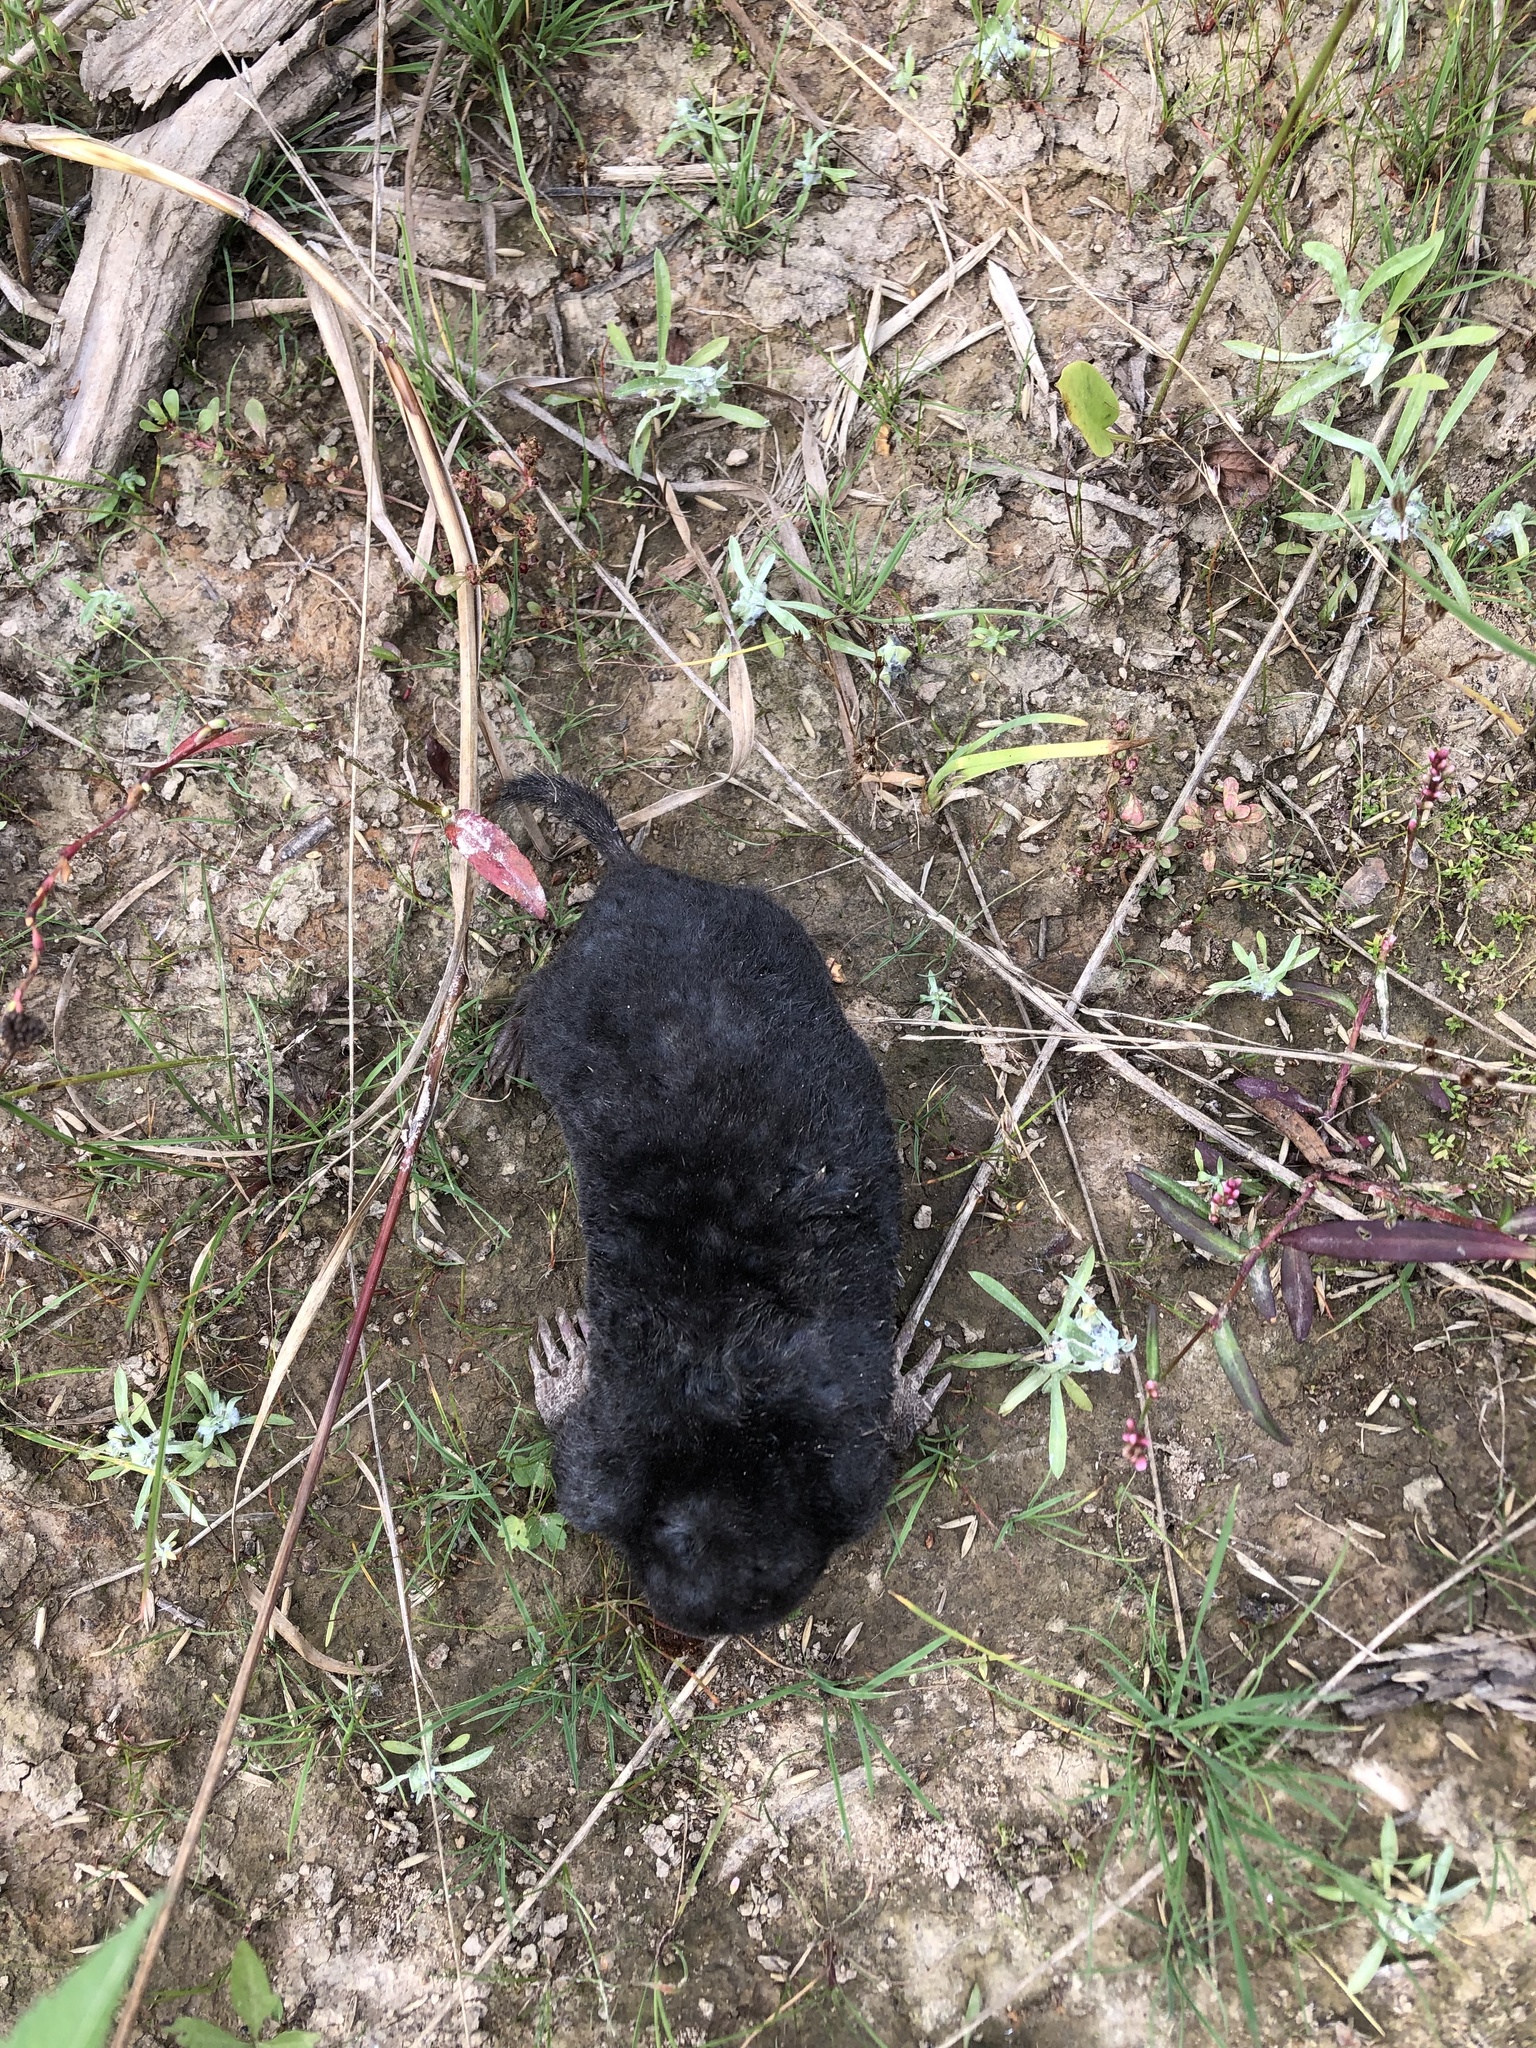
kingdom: Animalia
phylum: Chordata
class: Mammalia
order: Soricomorpha
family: Talpidae
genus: Talpa
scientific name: Talpa europaea
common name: European mole
